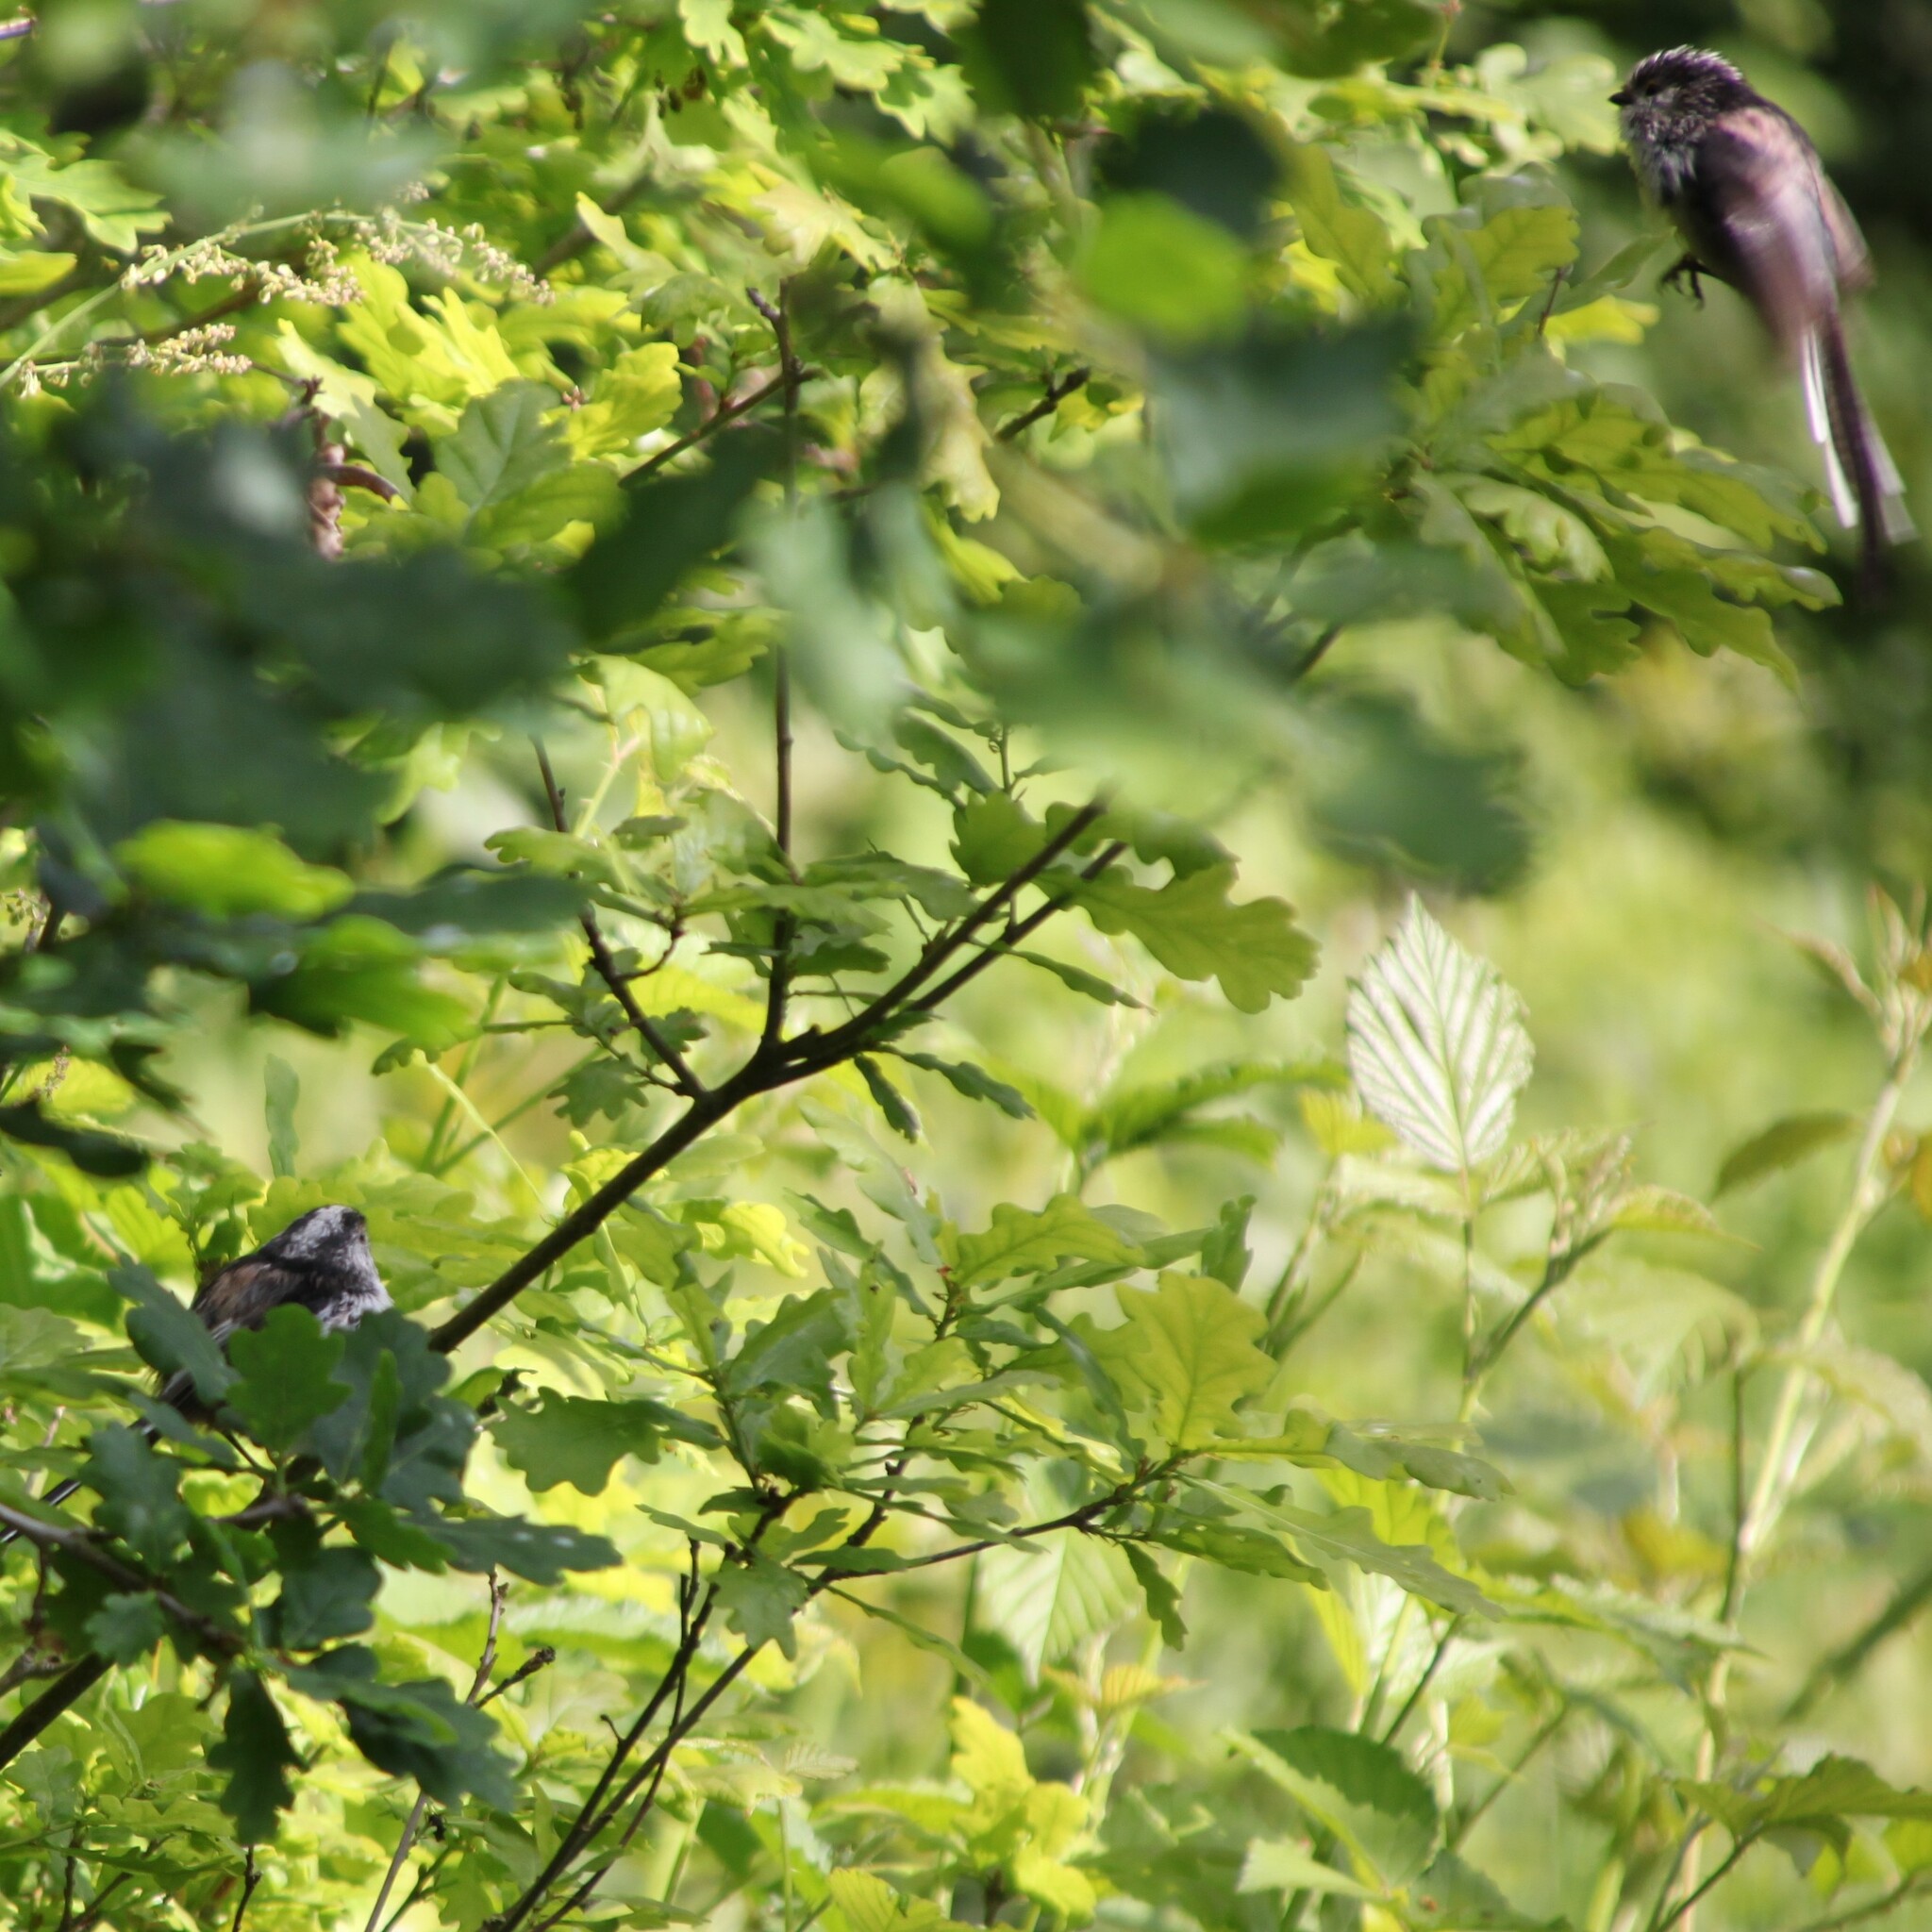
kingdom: Animalia
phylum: Chordata
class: Aves
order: Passeriformes
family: Aegithalidae
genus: Aegithalos
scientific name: Aegithalos caudatus
